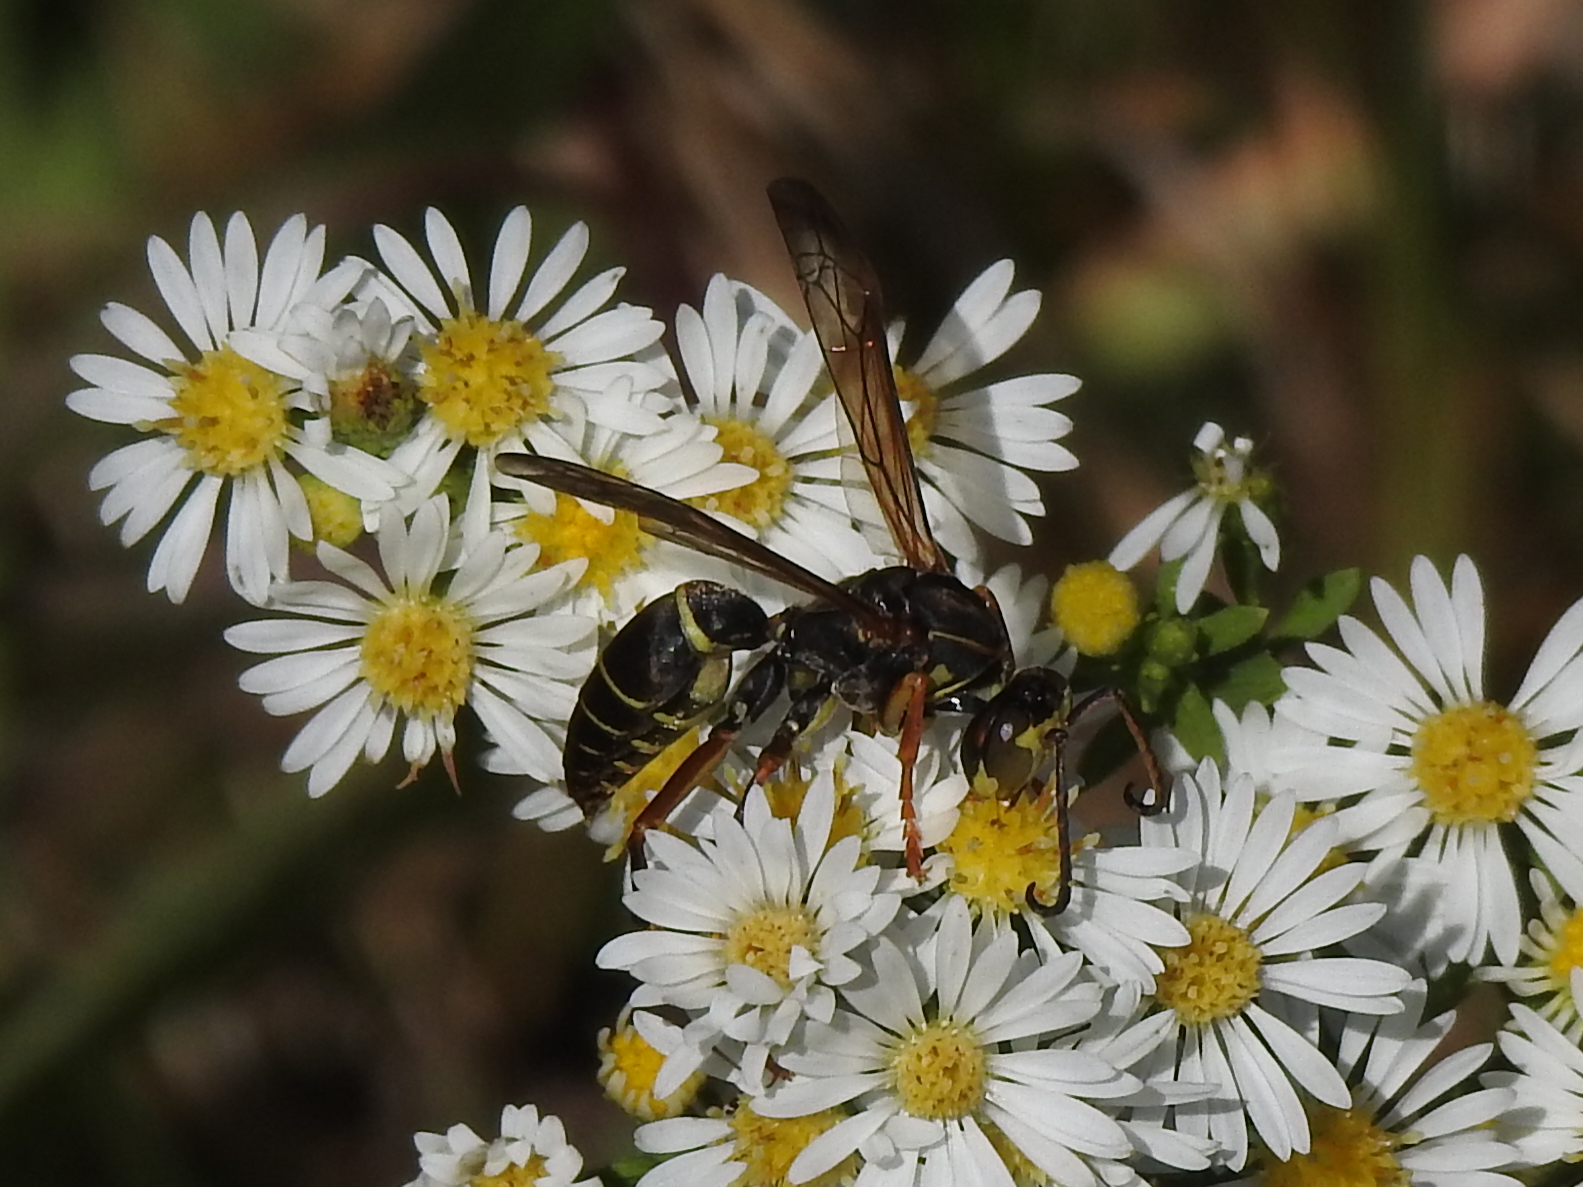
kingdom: Animalia
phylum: Arthropoda
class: Insecta
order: Hymenoptera
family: Eumenidae
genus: Polistes
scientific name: Polistes fuscatus
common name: Dark paper wasp
